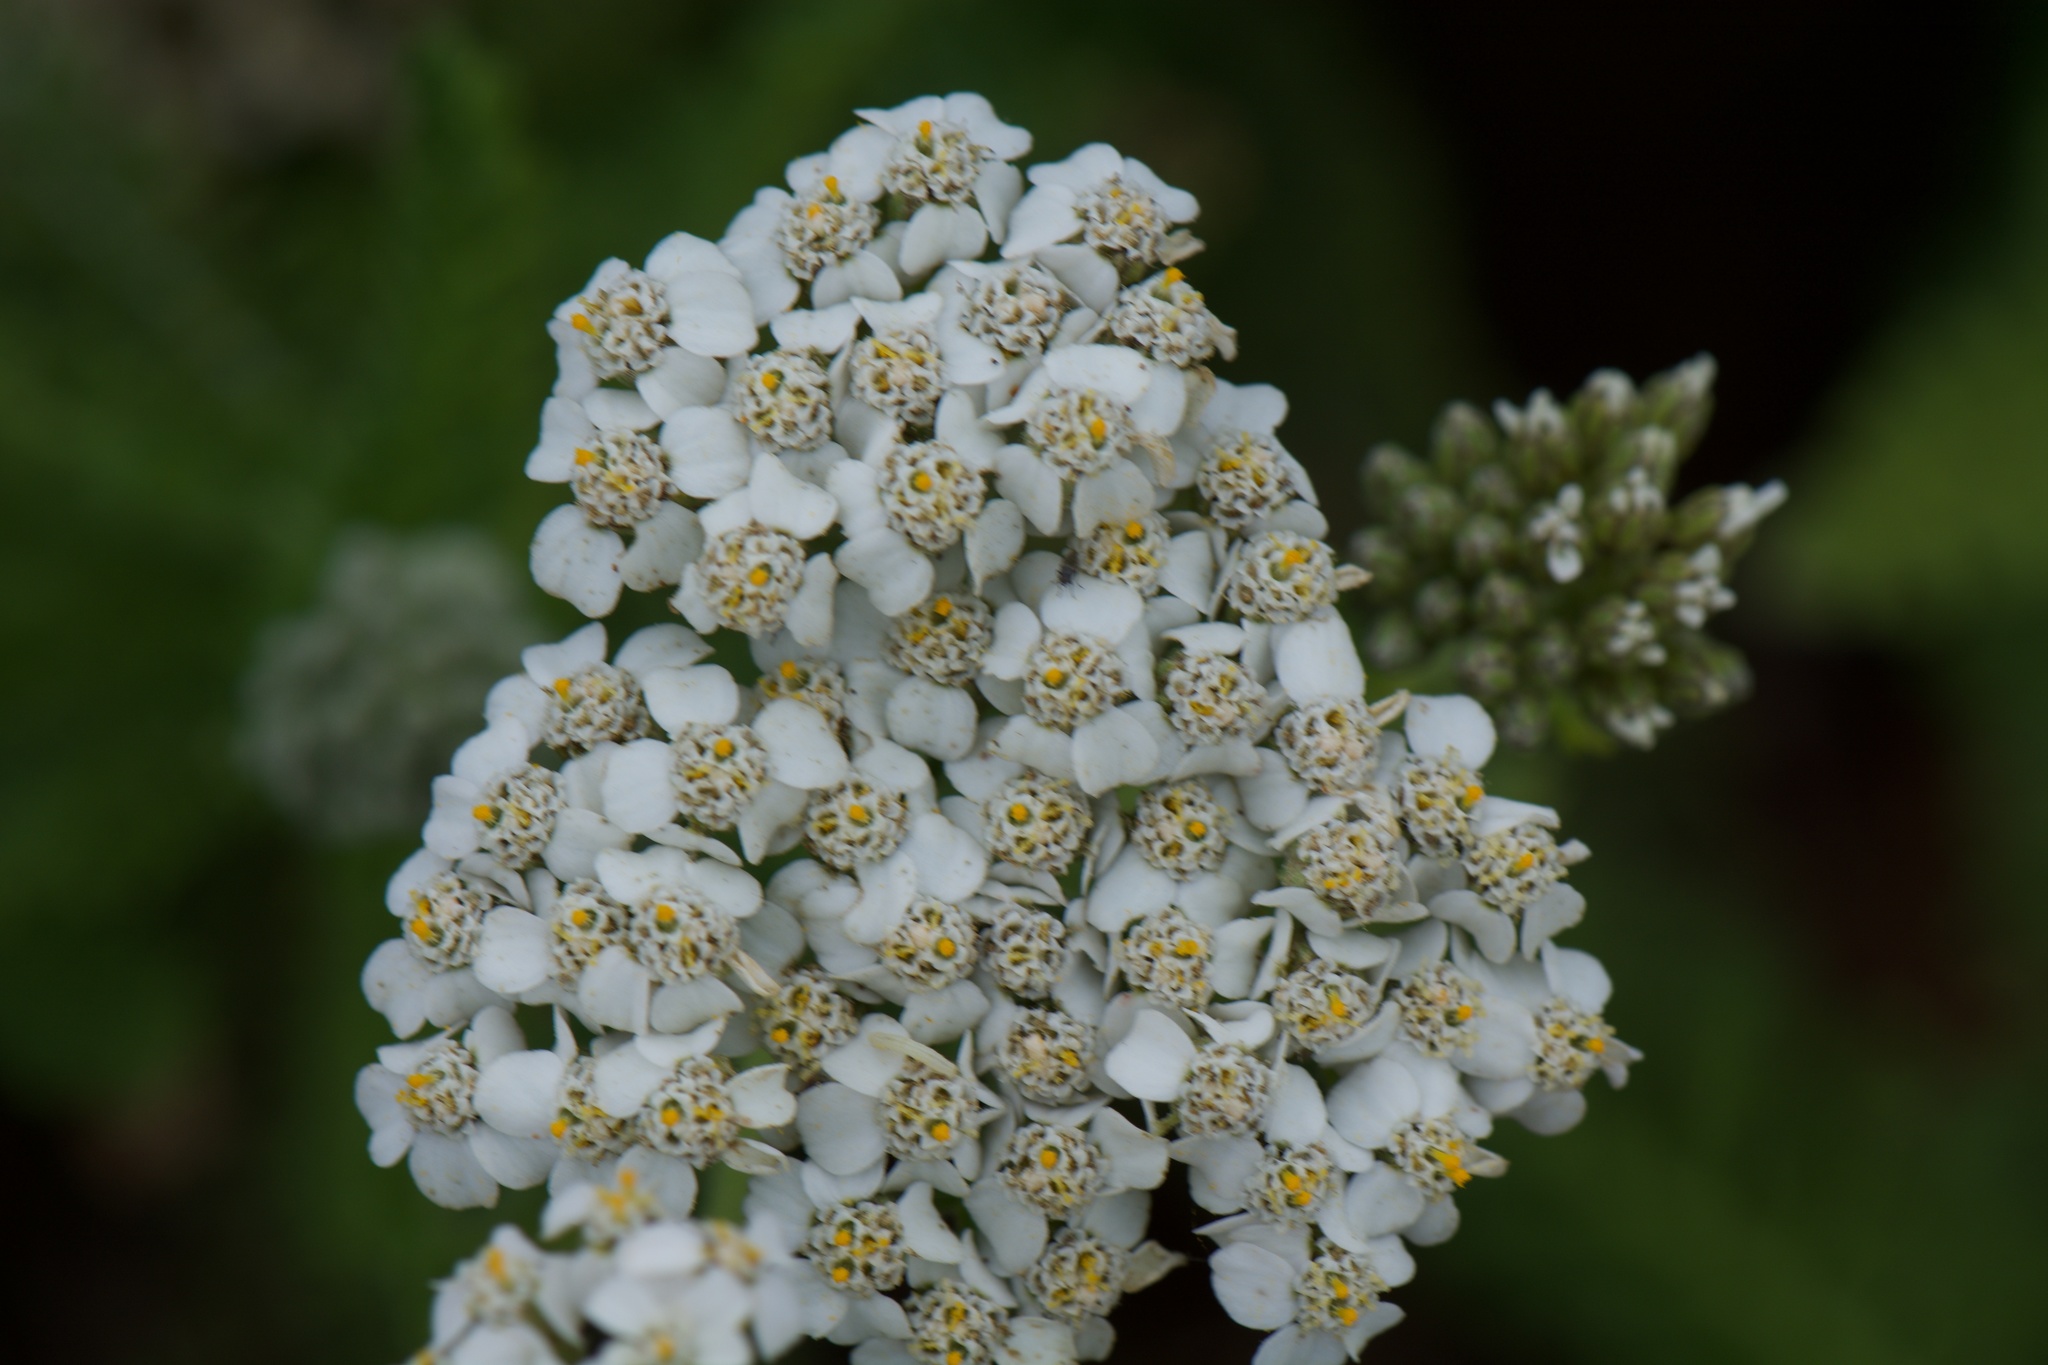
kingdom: Plantae
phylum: Tracheophyta
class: Magnoliopsida
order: Asterales
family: Asteraceae
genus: Achillea
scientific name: Achillea millefolium
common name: Yarrow
